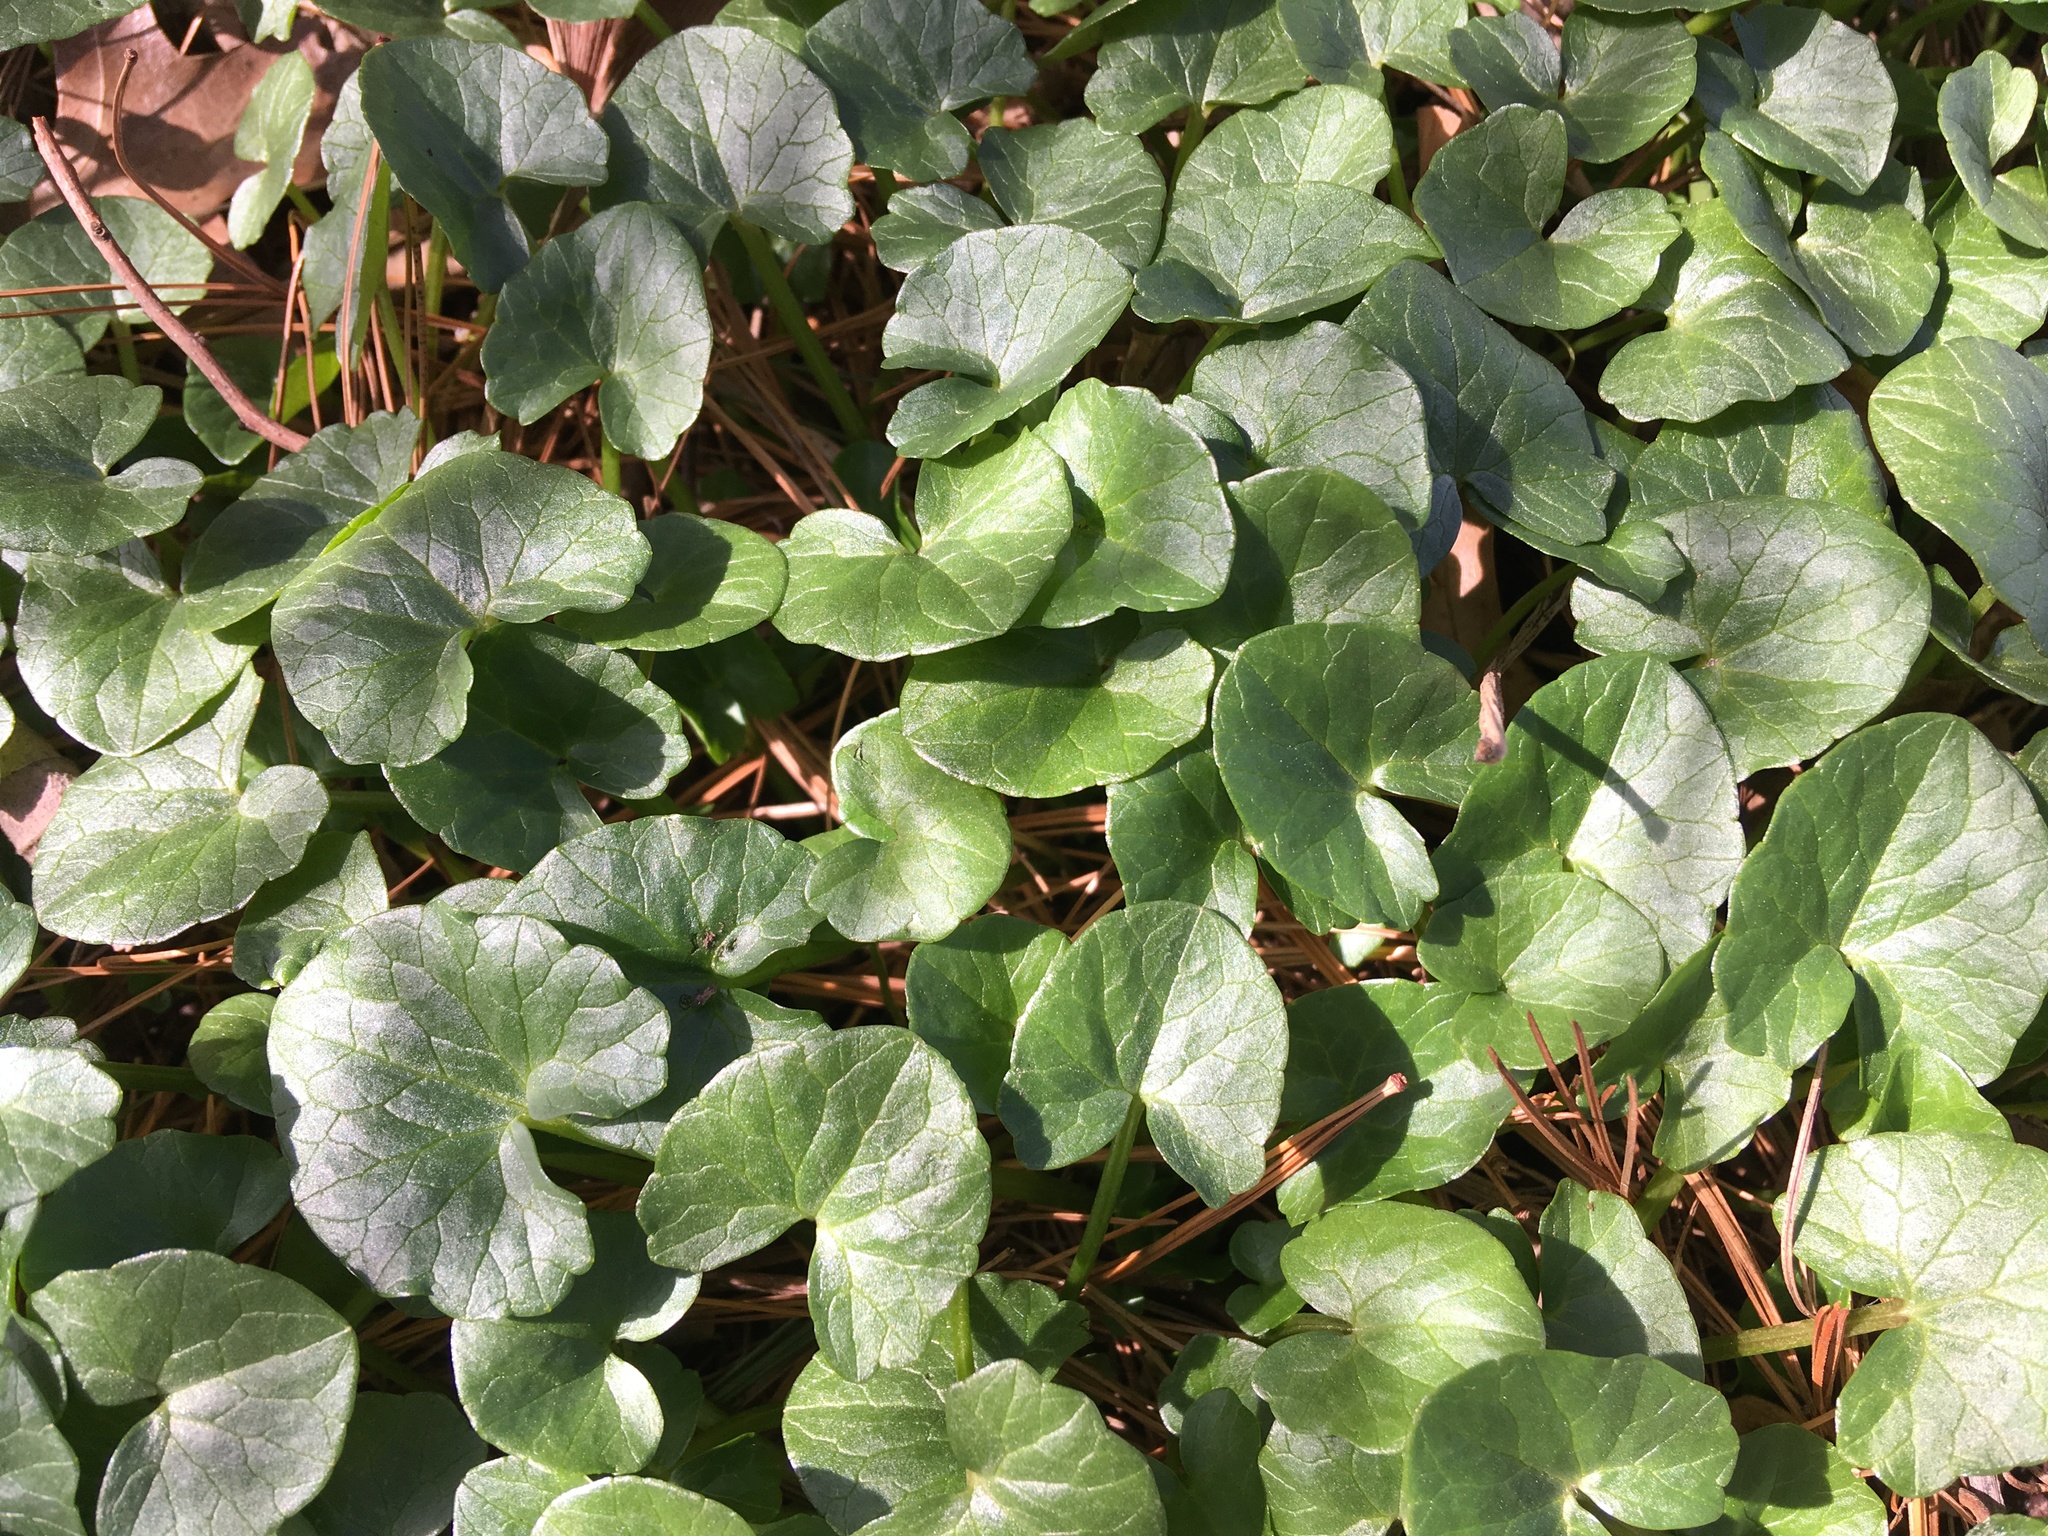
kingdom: Plantae
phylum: Tracheophyta
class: Magnoliopsida
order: Ranunculales
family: Ranunculaceae
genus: Ficaria
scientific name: Ficaria verna
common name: Lesser celandine
